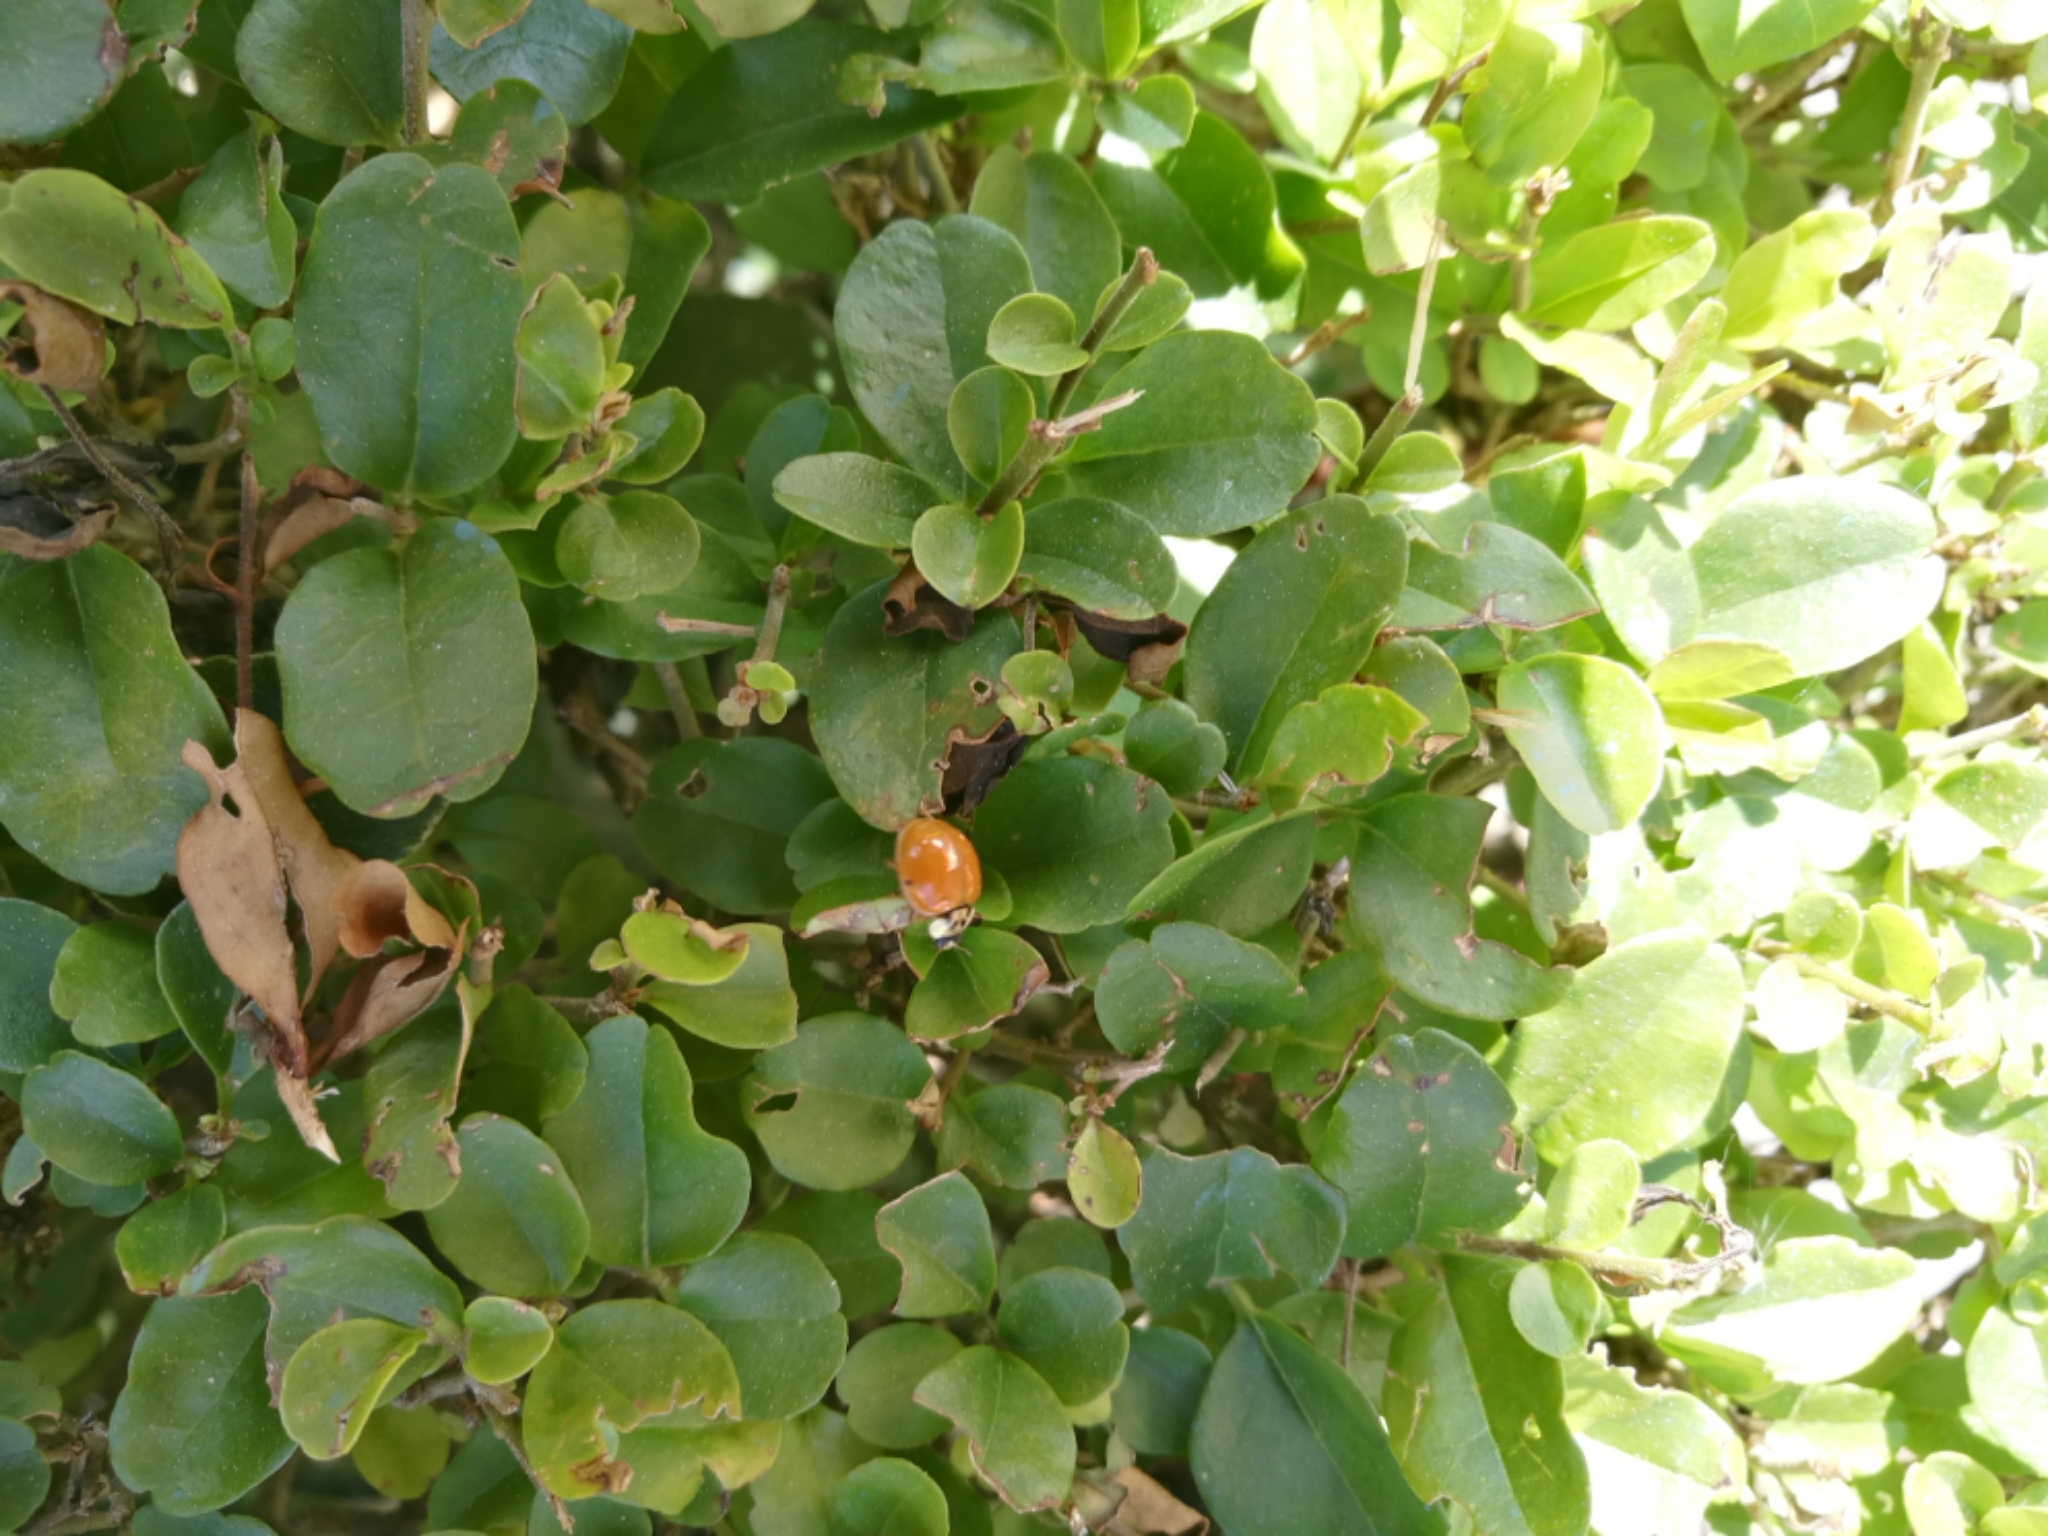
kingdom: Animalia
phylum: Arthropoda
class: Insecta
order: Coleoptera
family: Coccinellidae
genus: Harmonia
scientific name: Harmonia axyridis
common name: Harlequin ladybird
